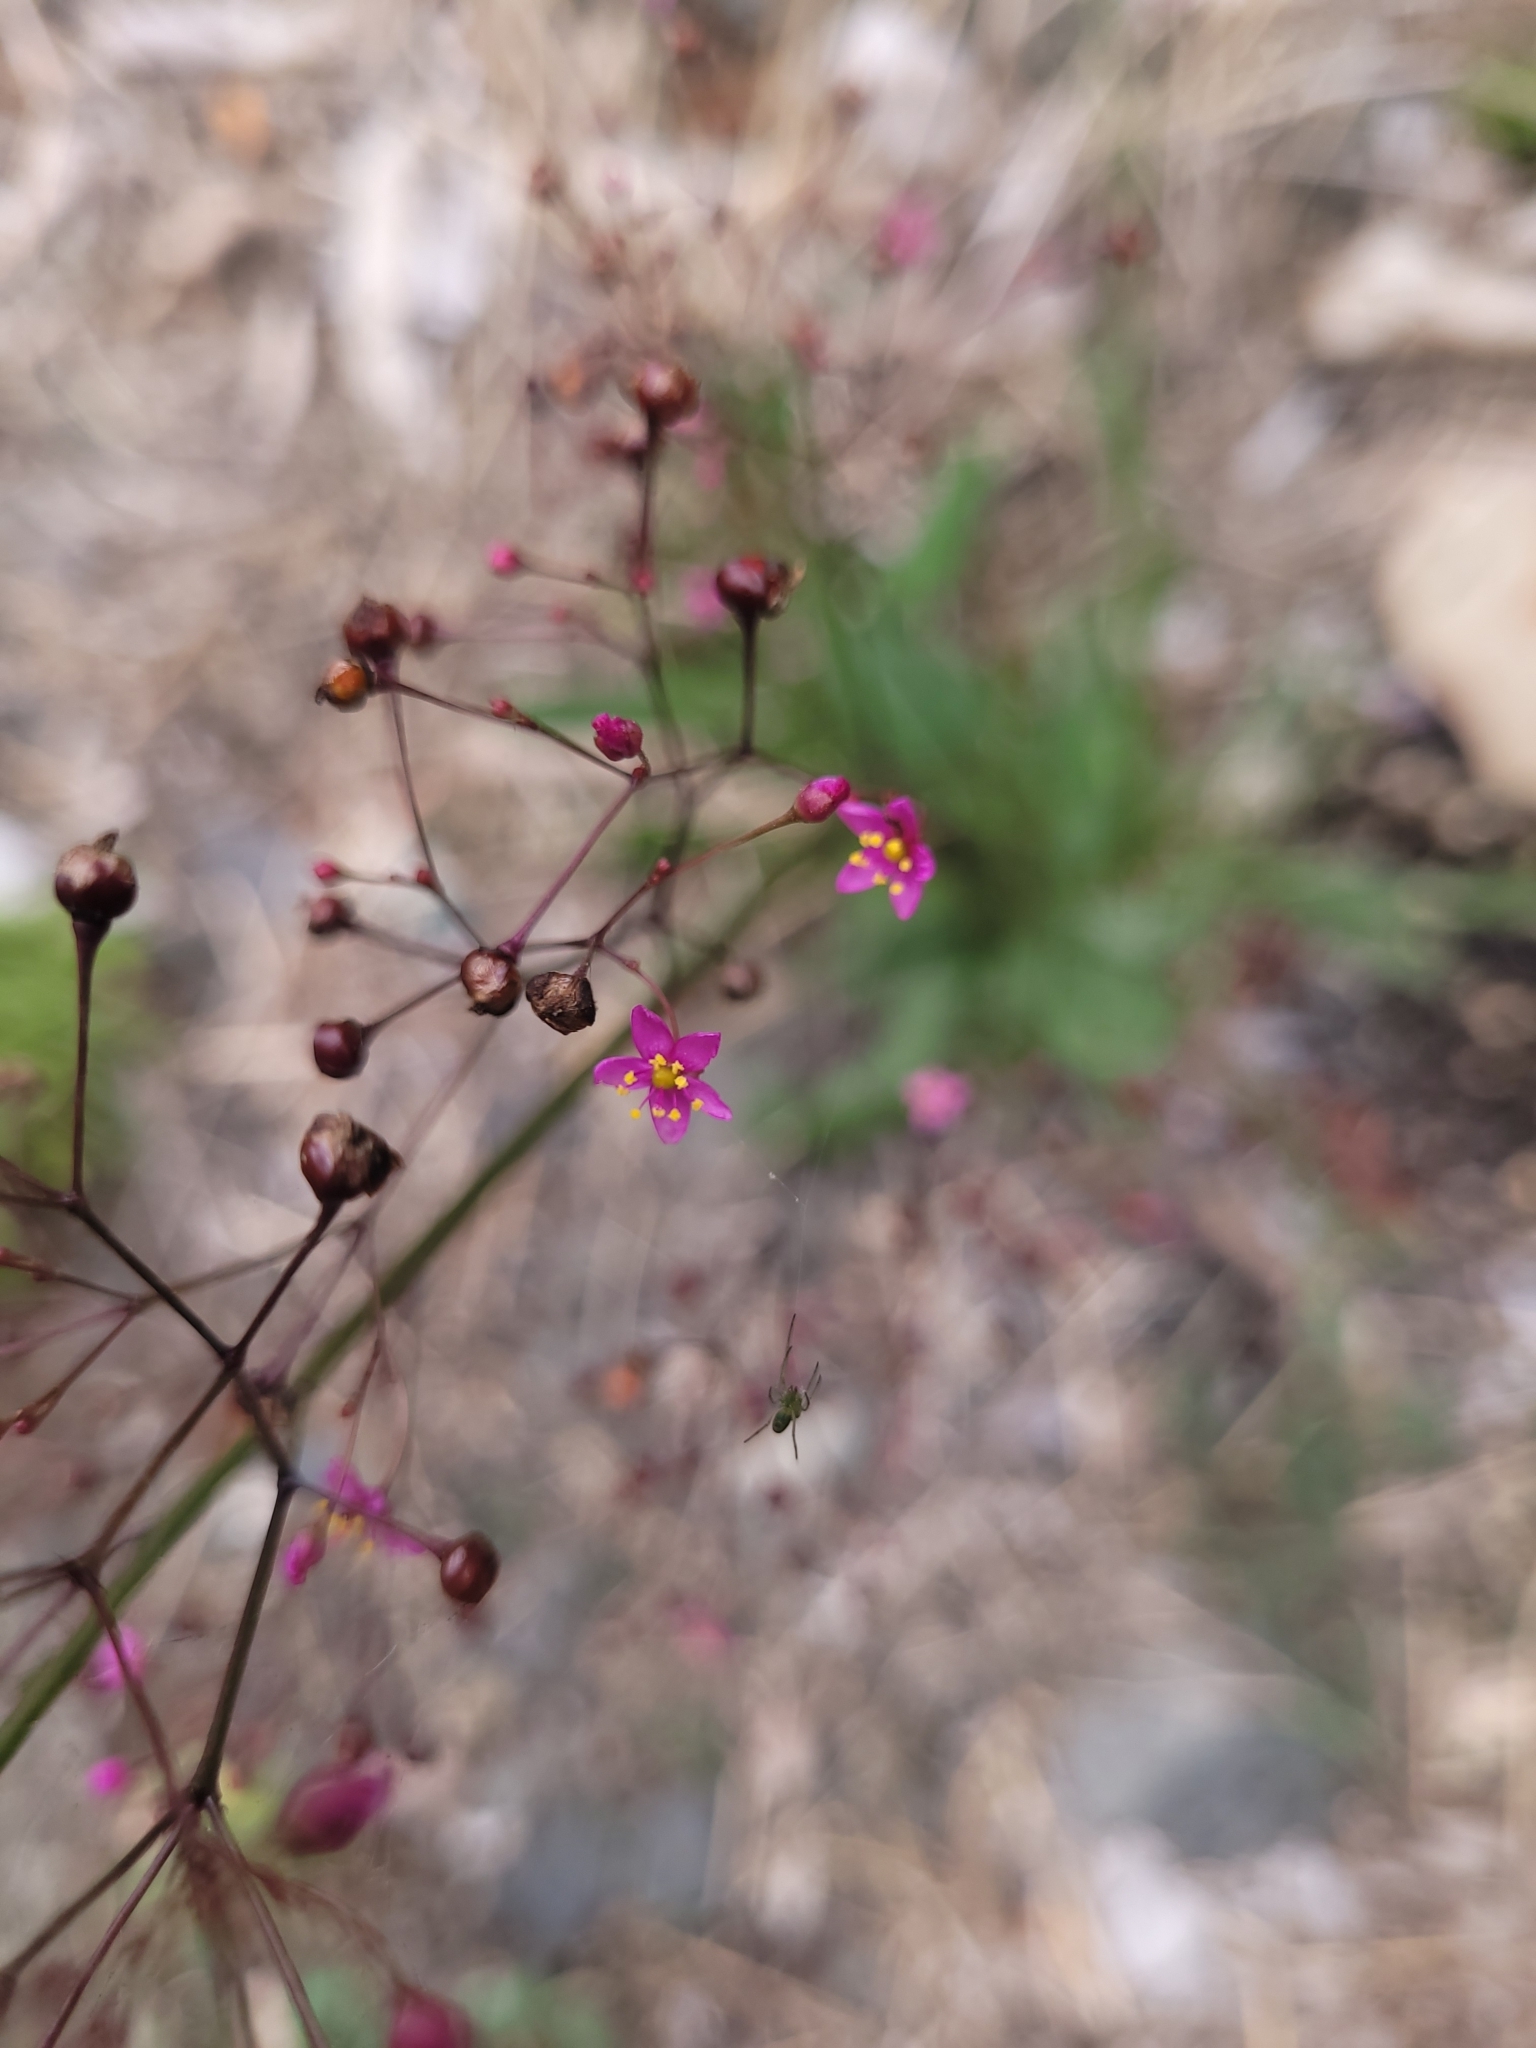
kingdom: Plantae
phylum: Tracheophyta
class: Magnoliopsida
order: Caryophyllales
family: Talinaceae
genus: Talinum
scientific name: Talinum paniculatum
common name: Jewels of opar
